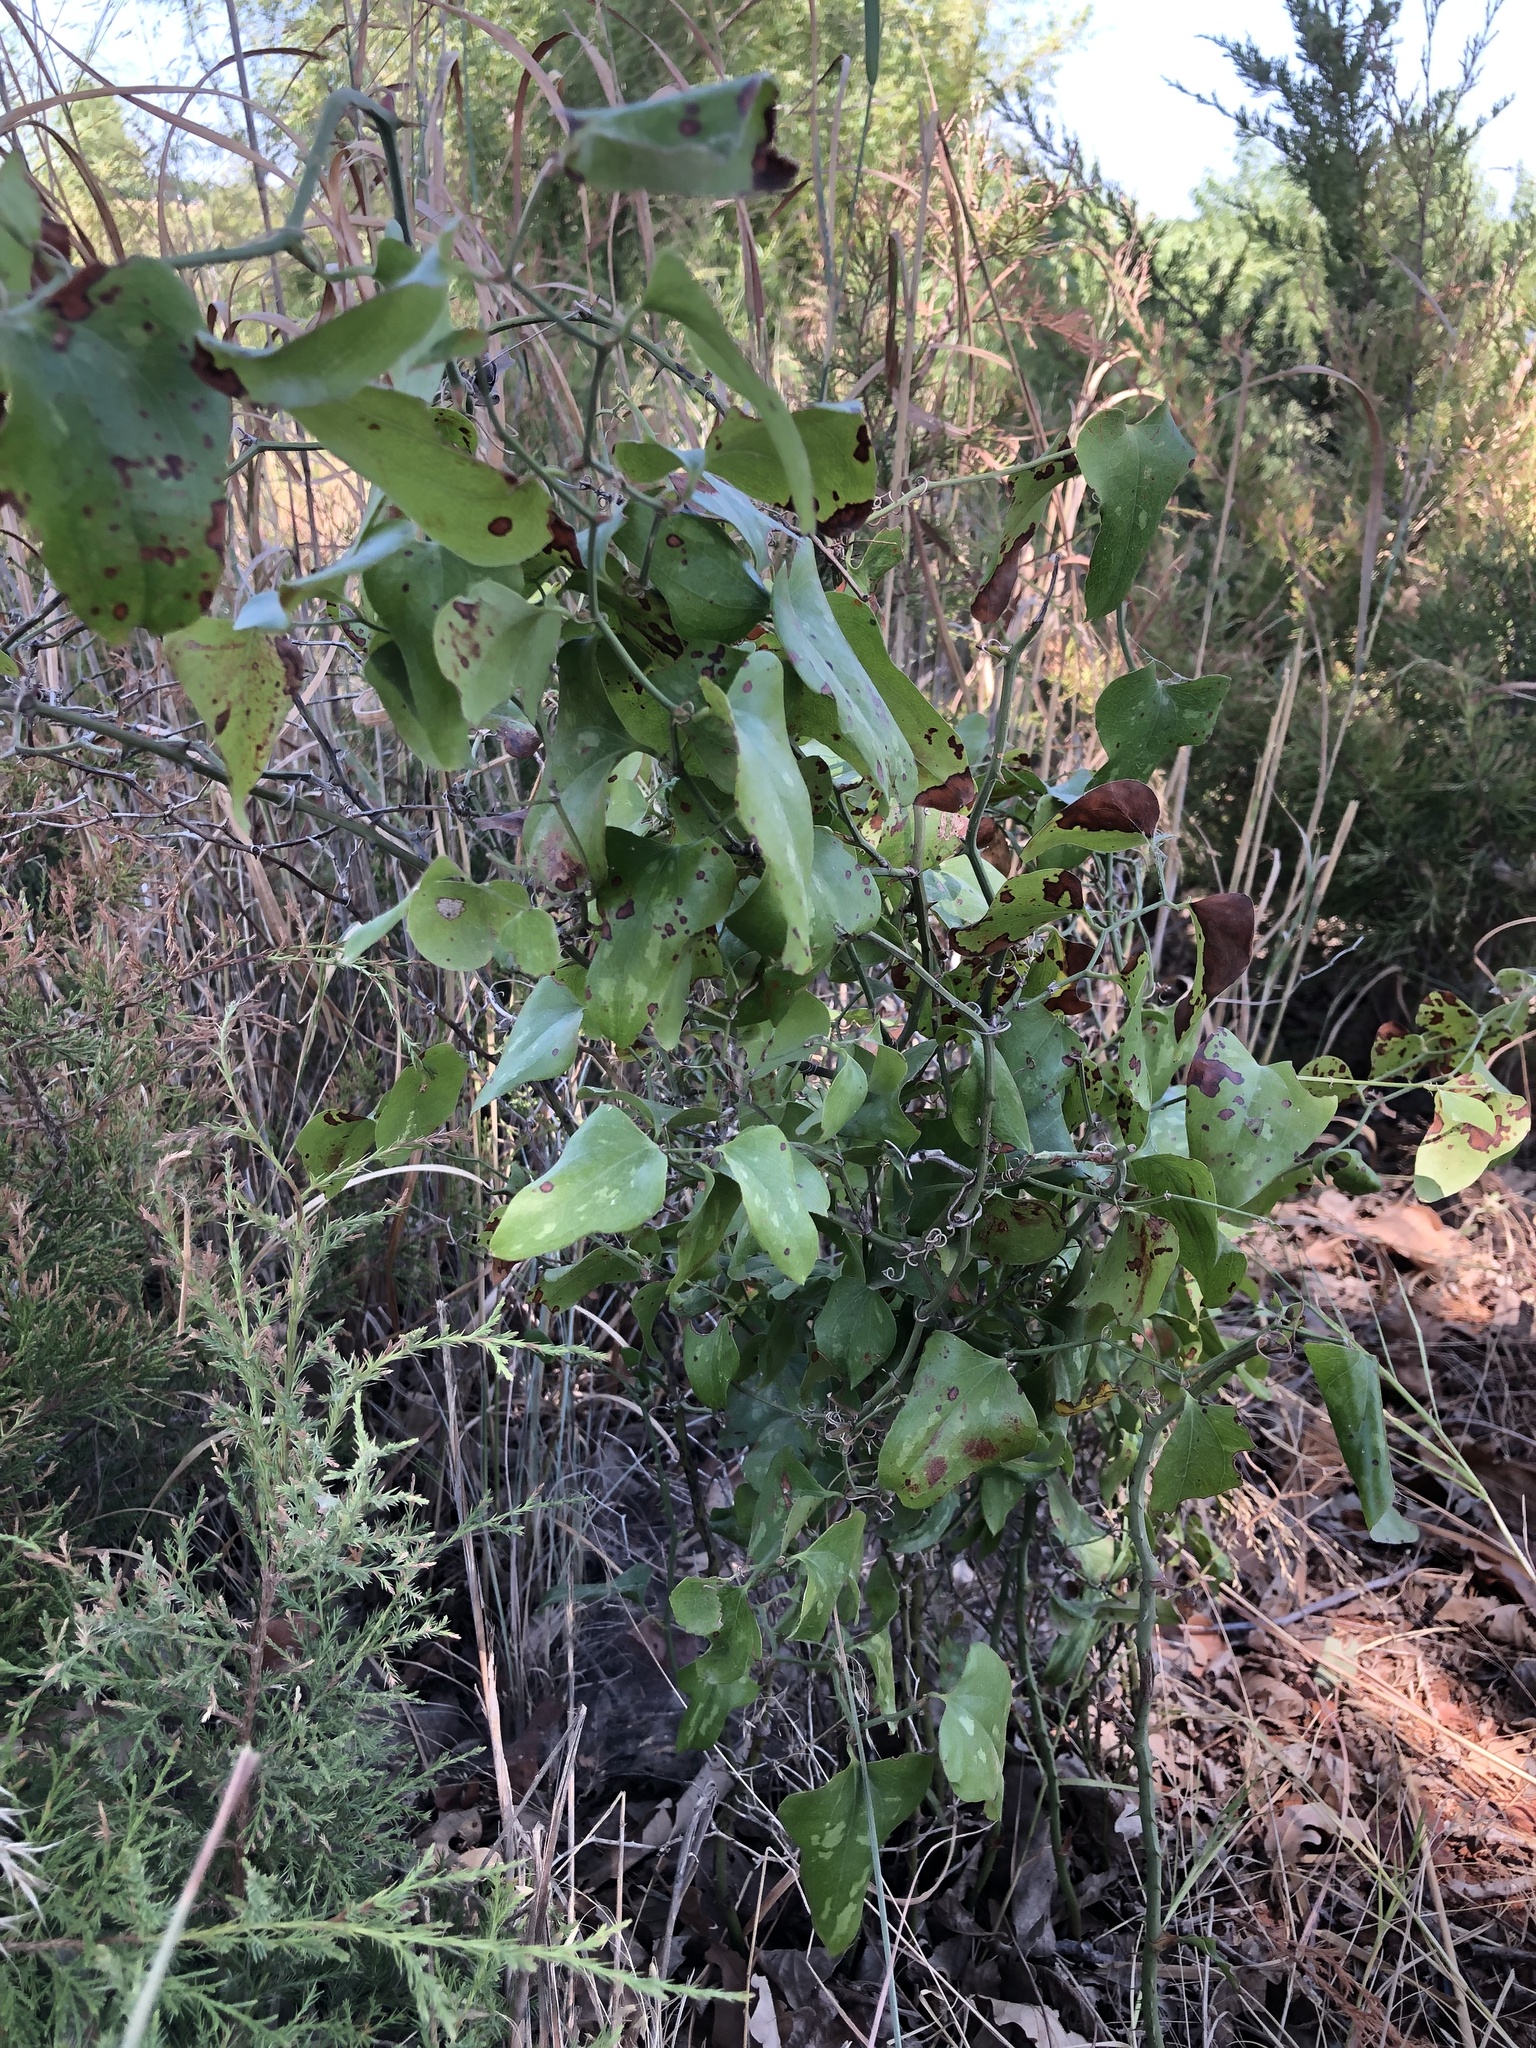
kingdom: Plantae
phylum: Tracheophyta
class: Liliopsida
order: Liliales
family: Smilacaceae
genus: Smilax
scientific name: Smilax bona-nox
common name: Catbrier
